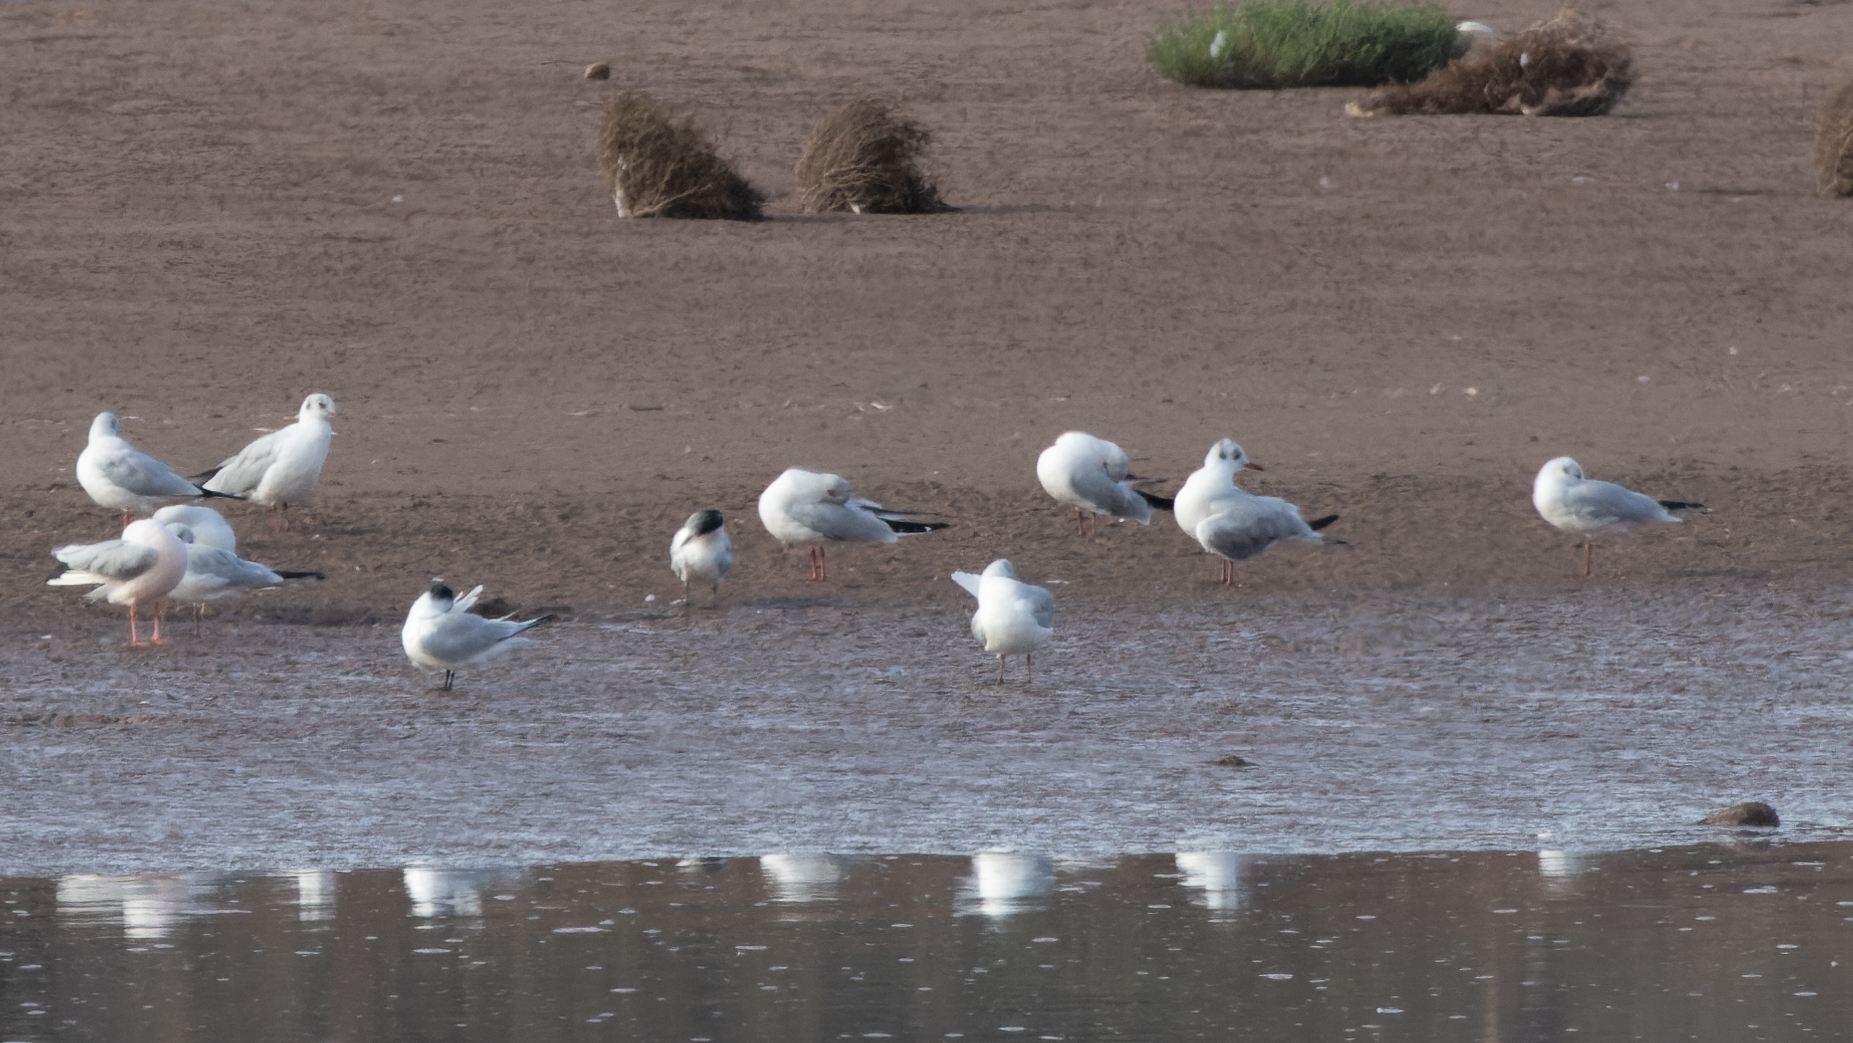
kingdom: Animalia
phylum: Chordata
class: Aves
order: Charadriiformes
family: Laridae
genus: Thalasseus
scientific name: Thalasseus sandvicensis
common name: Sandwich tern
